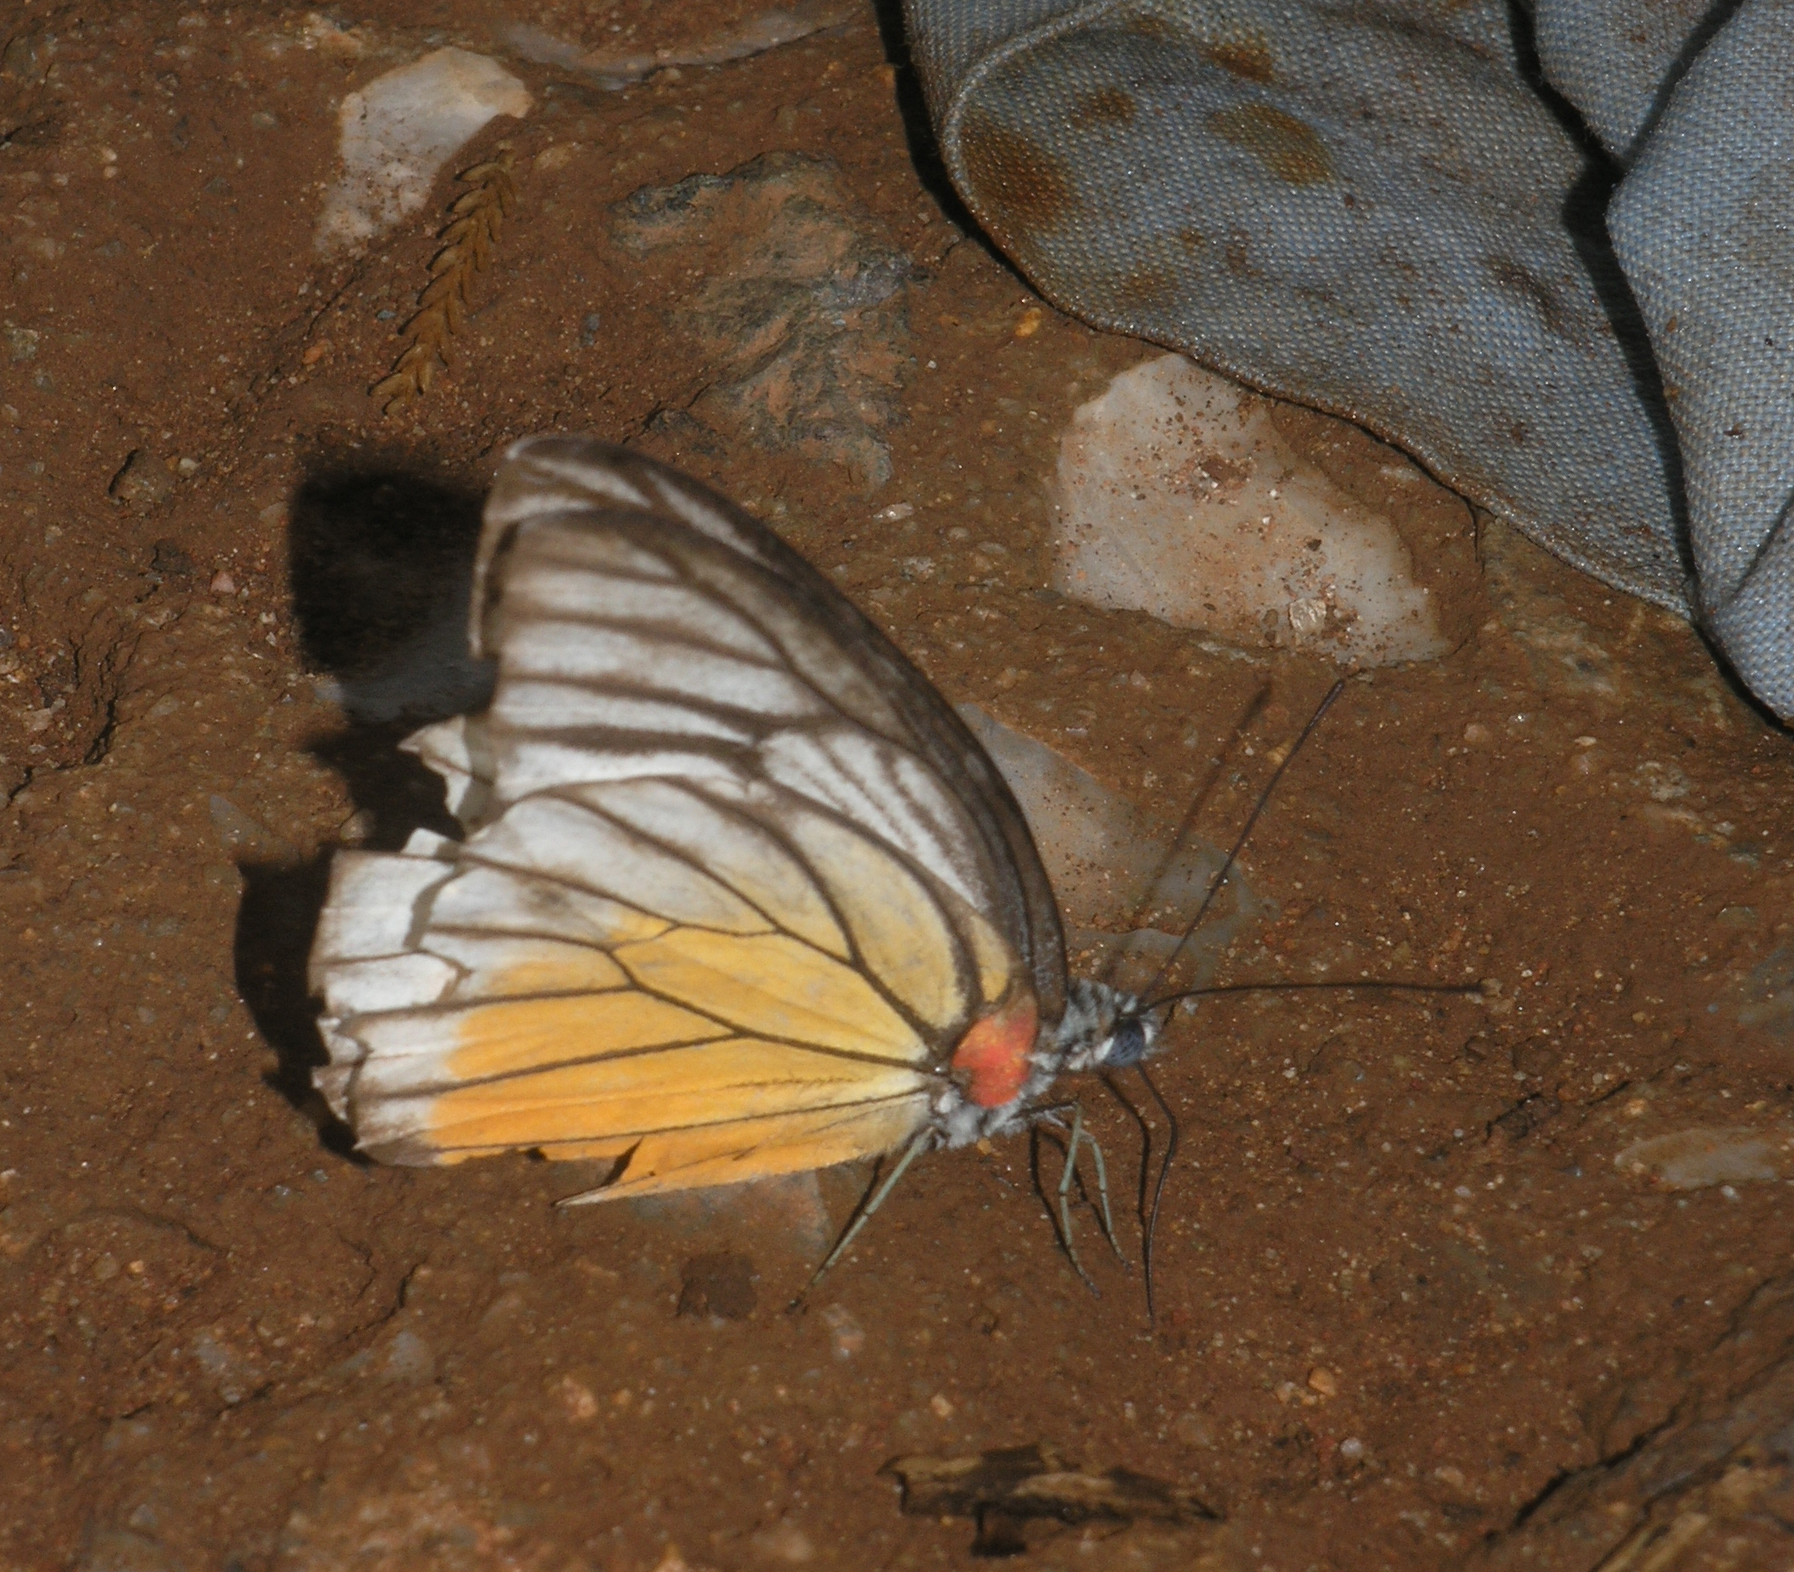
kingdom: Animalia
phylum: Arthropoda
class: Insecta
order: Lepidoptera
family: Pieridae
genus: Prioneris
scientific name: Prioneris
